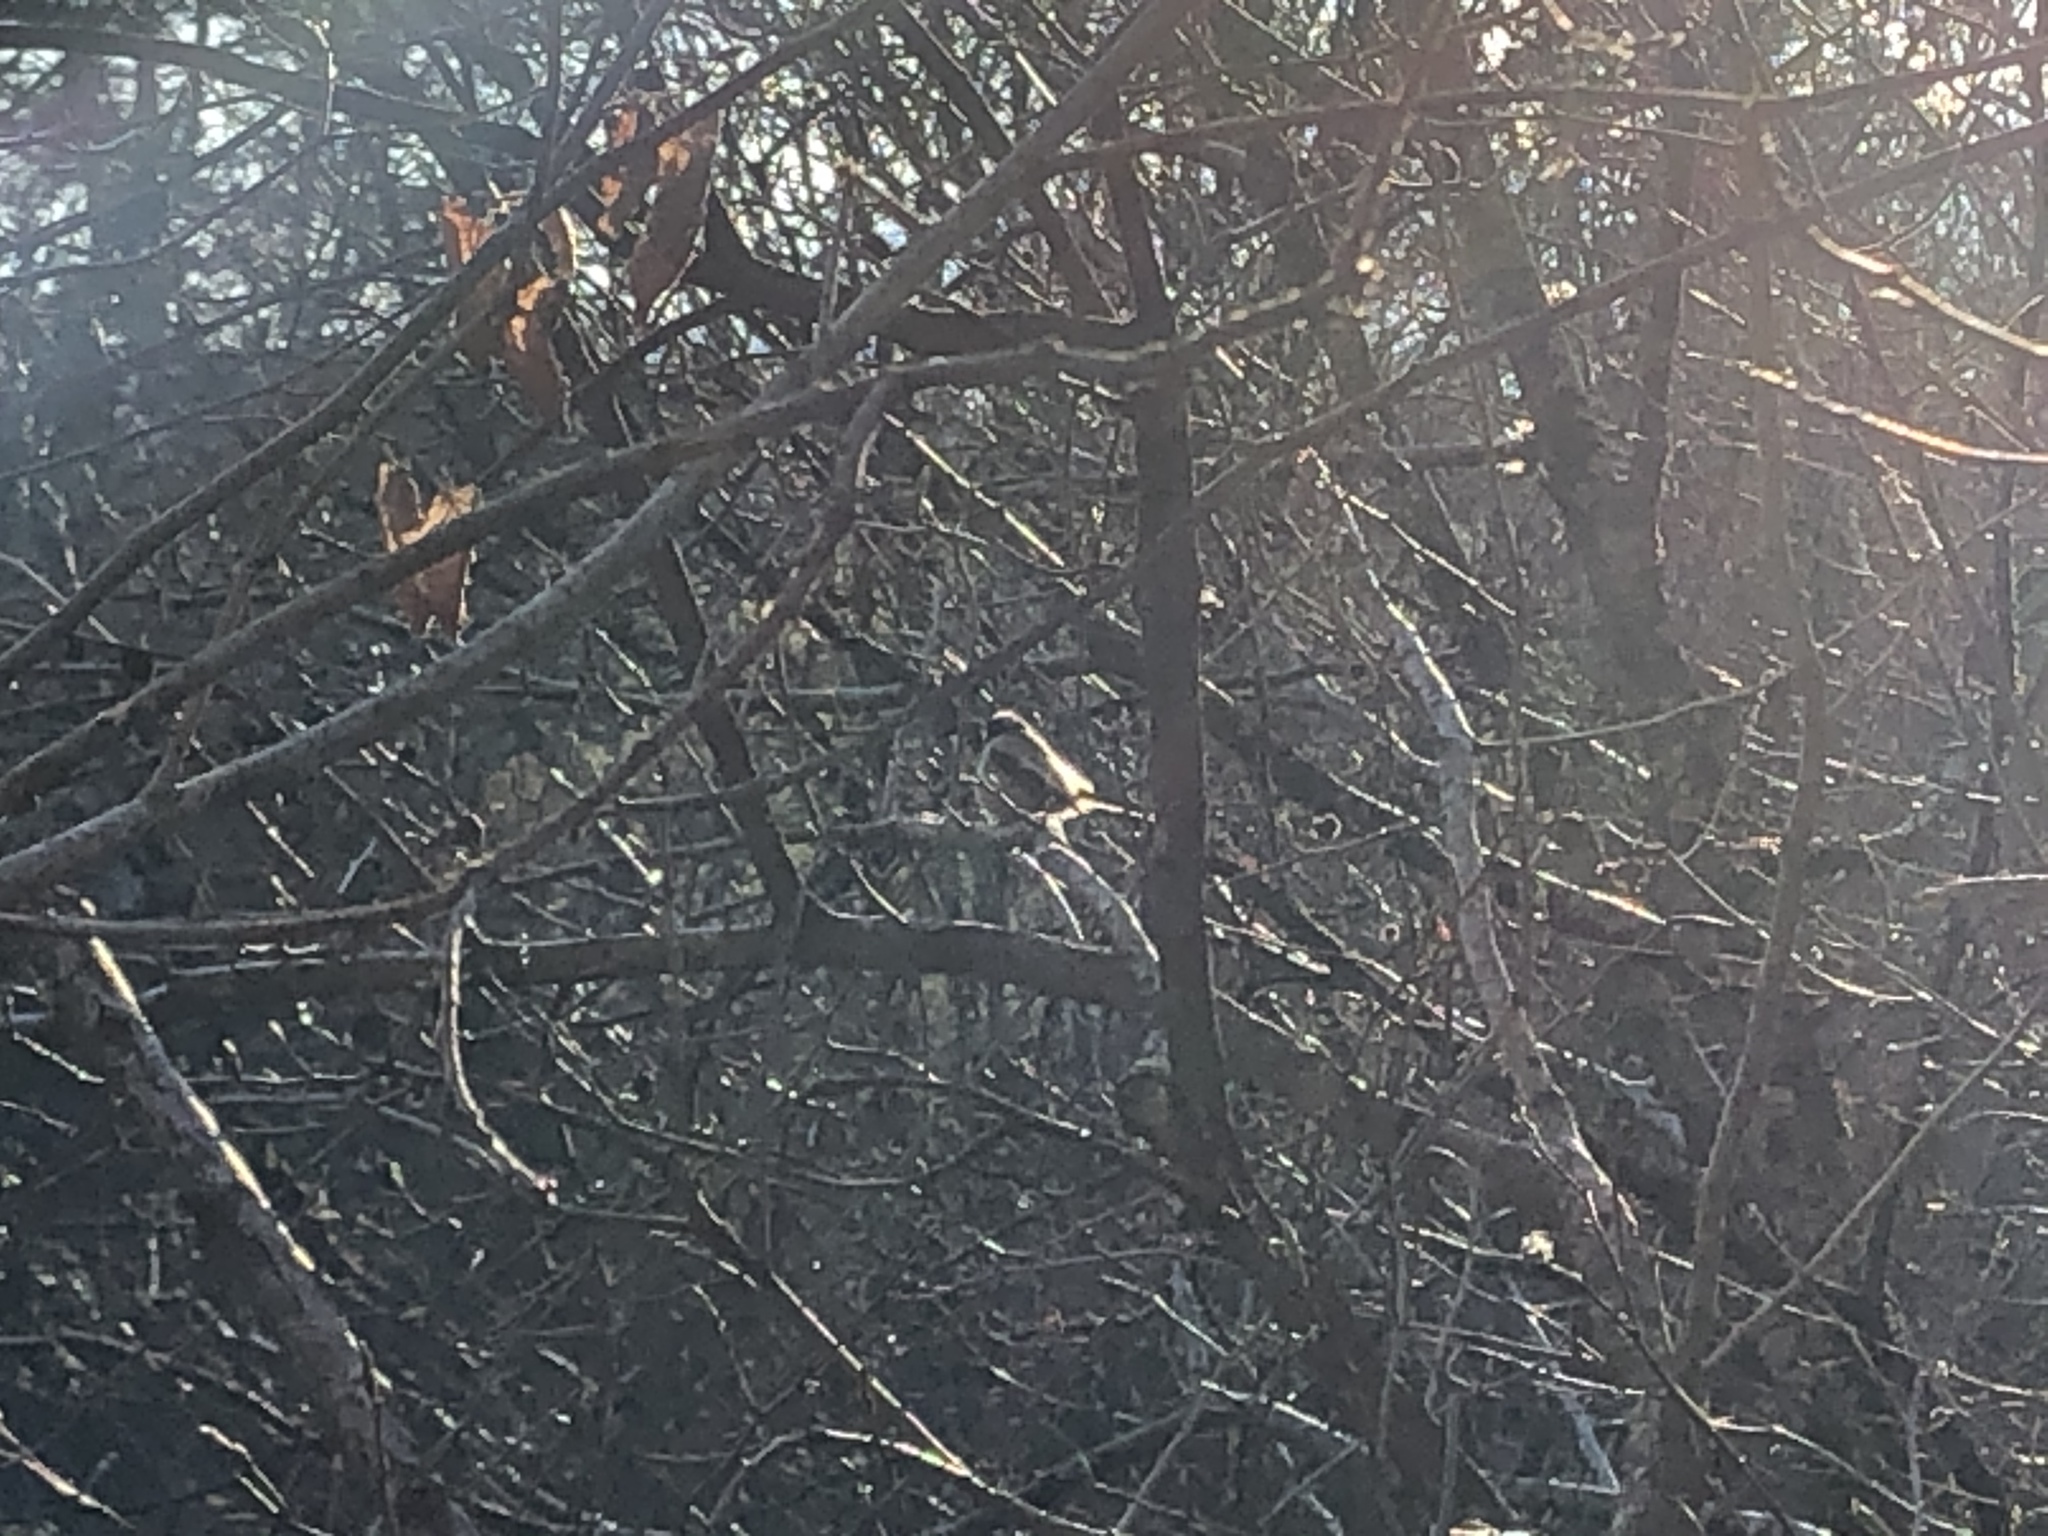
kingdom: Animalia
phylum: Chordata
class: Aves
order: Passeriformes
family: Aegithalidae
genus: Aegithalos
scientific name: Aegithalos caudatus
